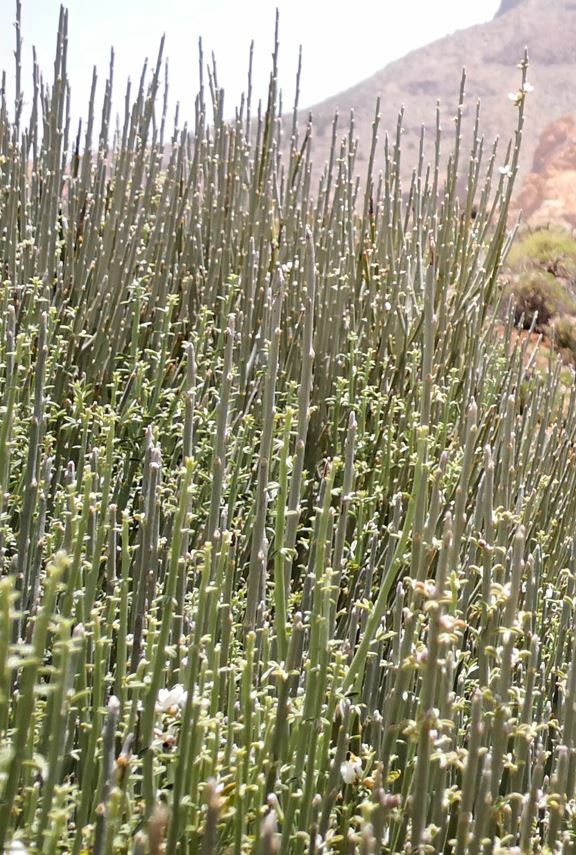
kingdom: Plantae
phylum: Tracheophyta
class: Magnoliopsida
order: Fabales
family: Fabaceae
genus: Cytisus
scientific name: Cytisus supranubius
